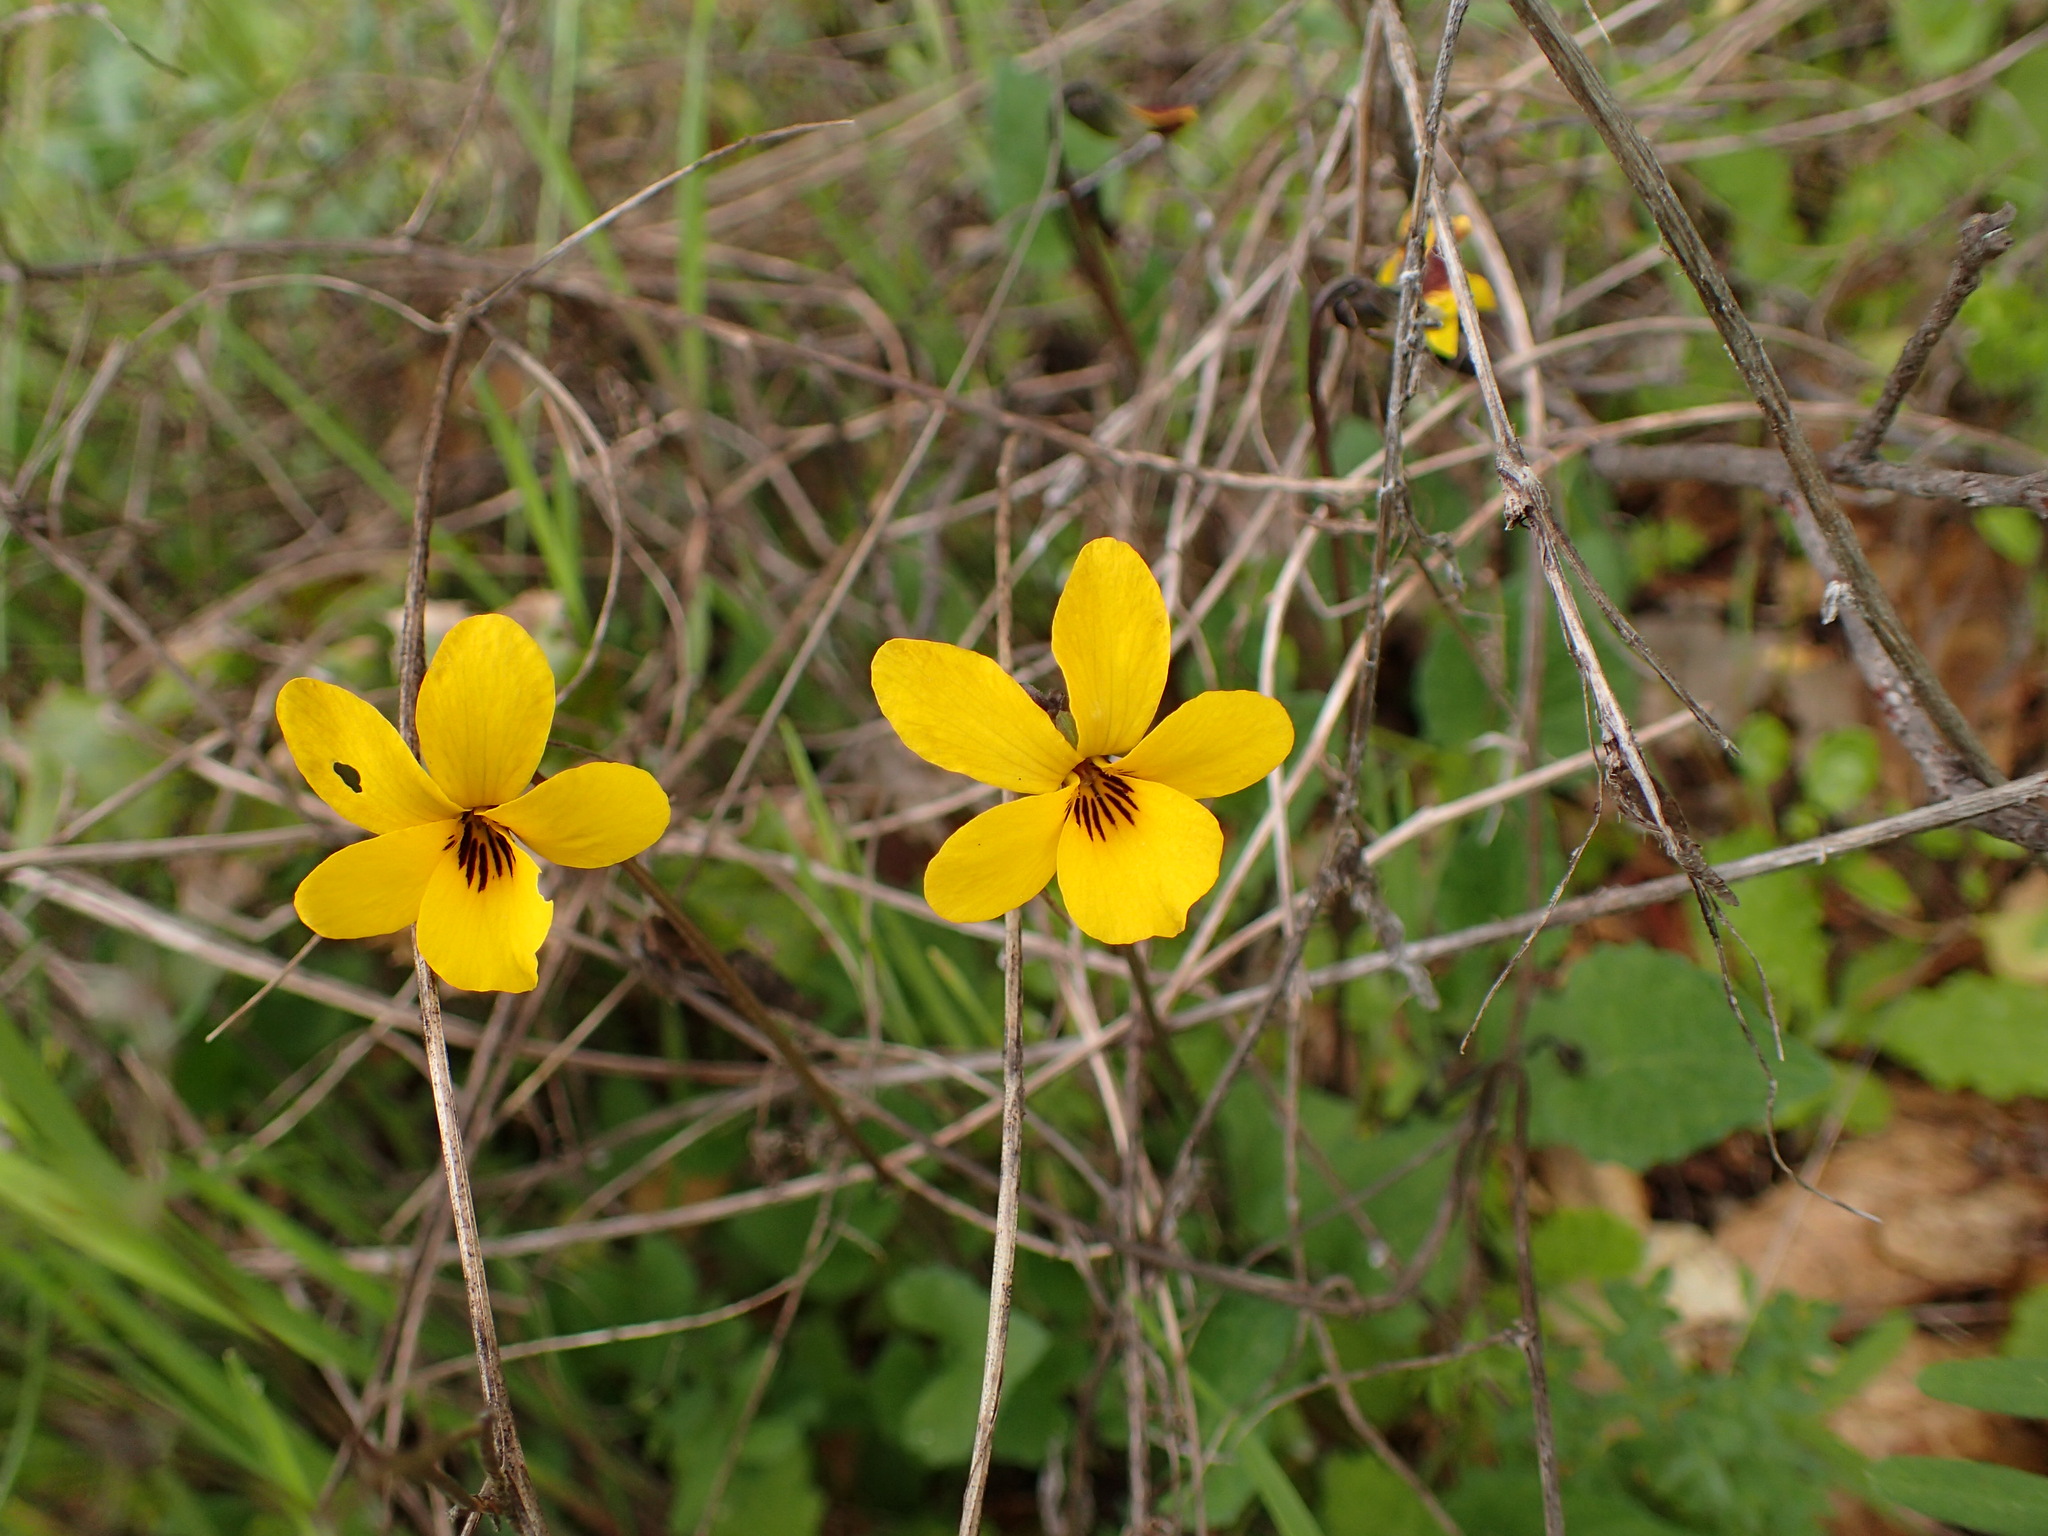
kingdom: Plantae
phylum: Tracheophyta
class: Magnoliopsida
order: Malpighiales
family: Violaceae
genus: Viola
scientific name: Viola pedunculata
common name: California golden violet
